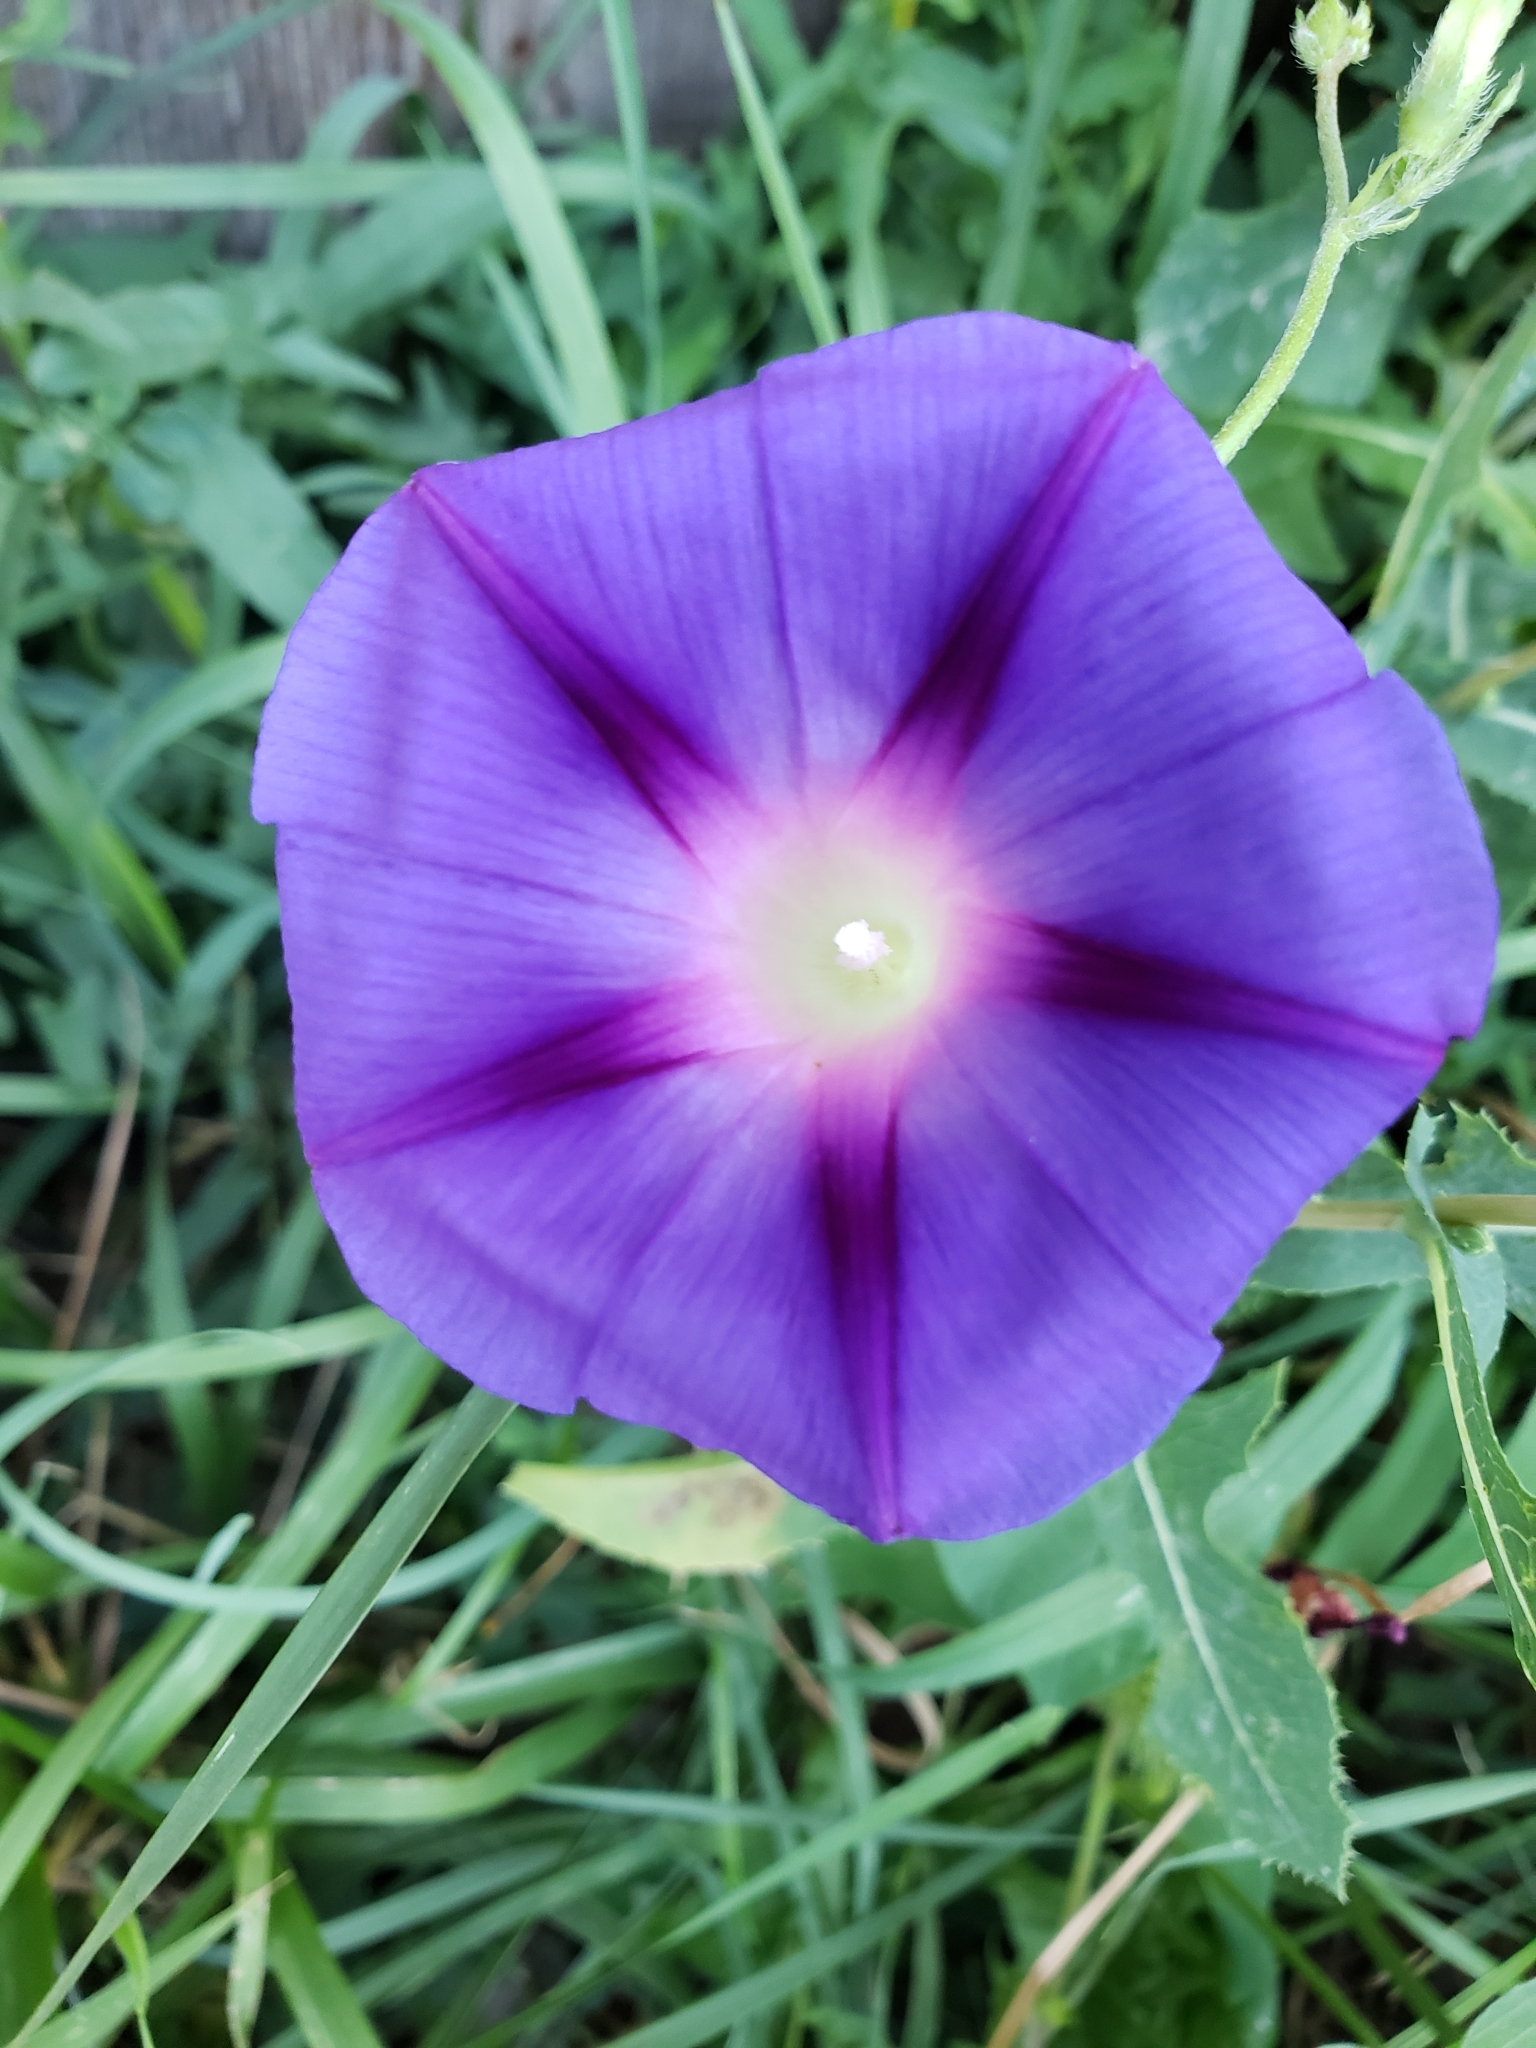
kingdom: Plantae
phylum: Tracheophyta
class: Magnoliopsida
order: Solanales
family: Convolvulaceae
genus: Ipomoea
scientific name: Ipomoea purpurea
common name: Common morning-glory
